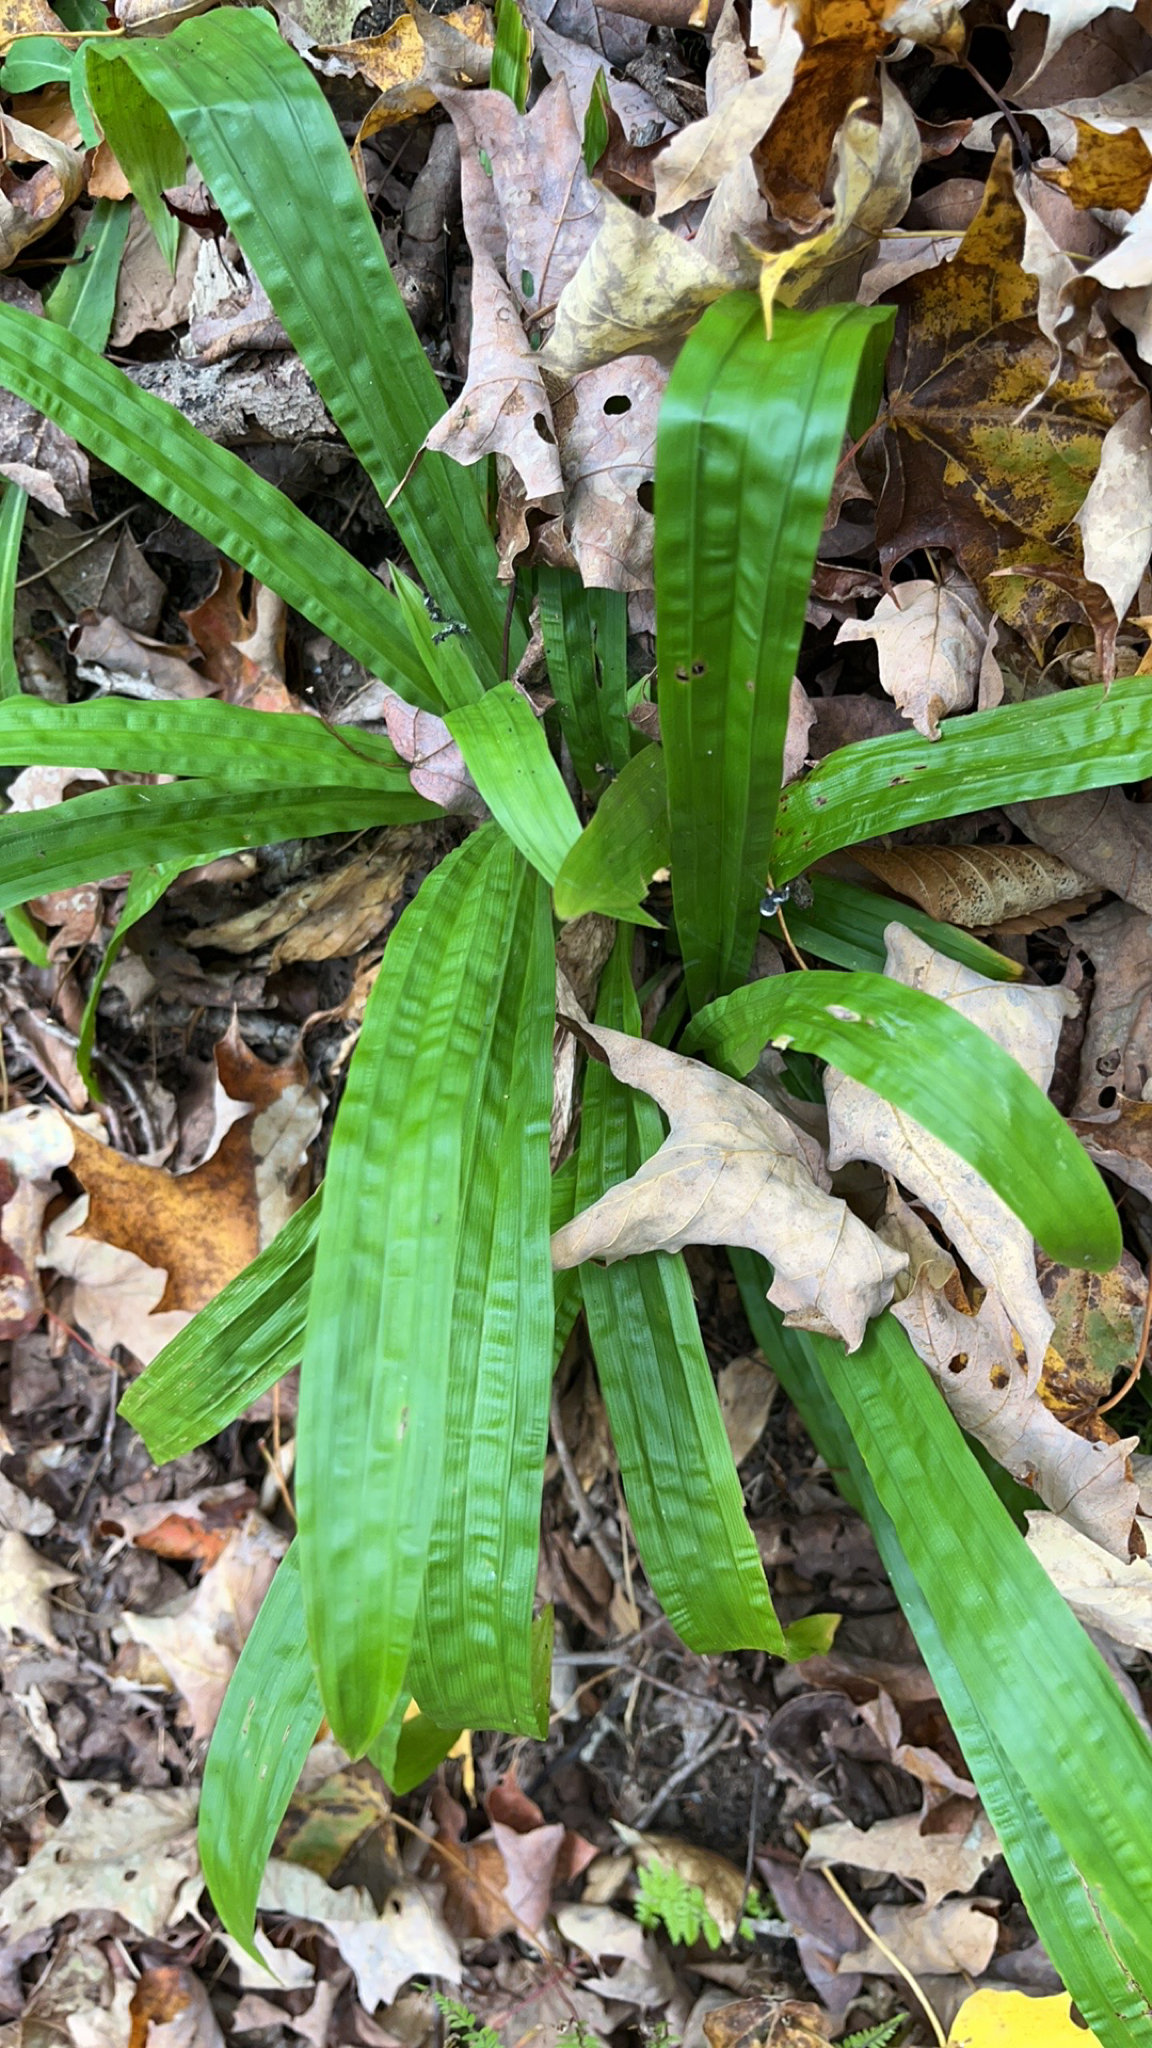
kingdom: Plantae
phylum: Tracheophyta
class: Liliopsida
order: Poales
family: Cyperaceae
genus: Carex
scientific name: Carex plantaginea
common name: Plantain-leaved sedge
